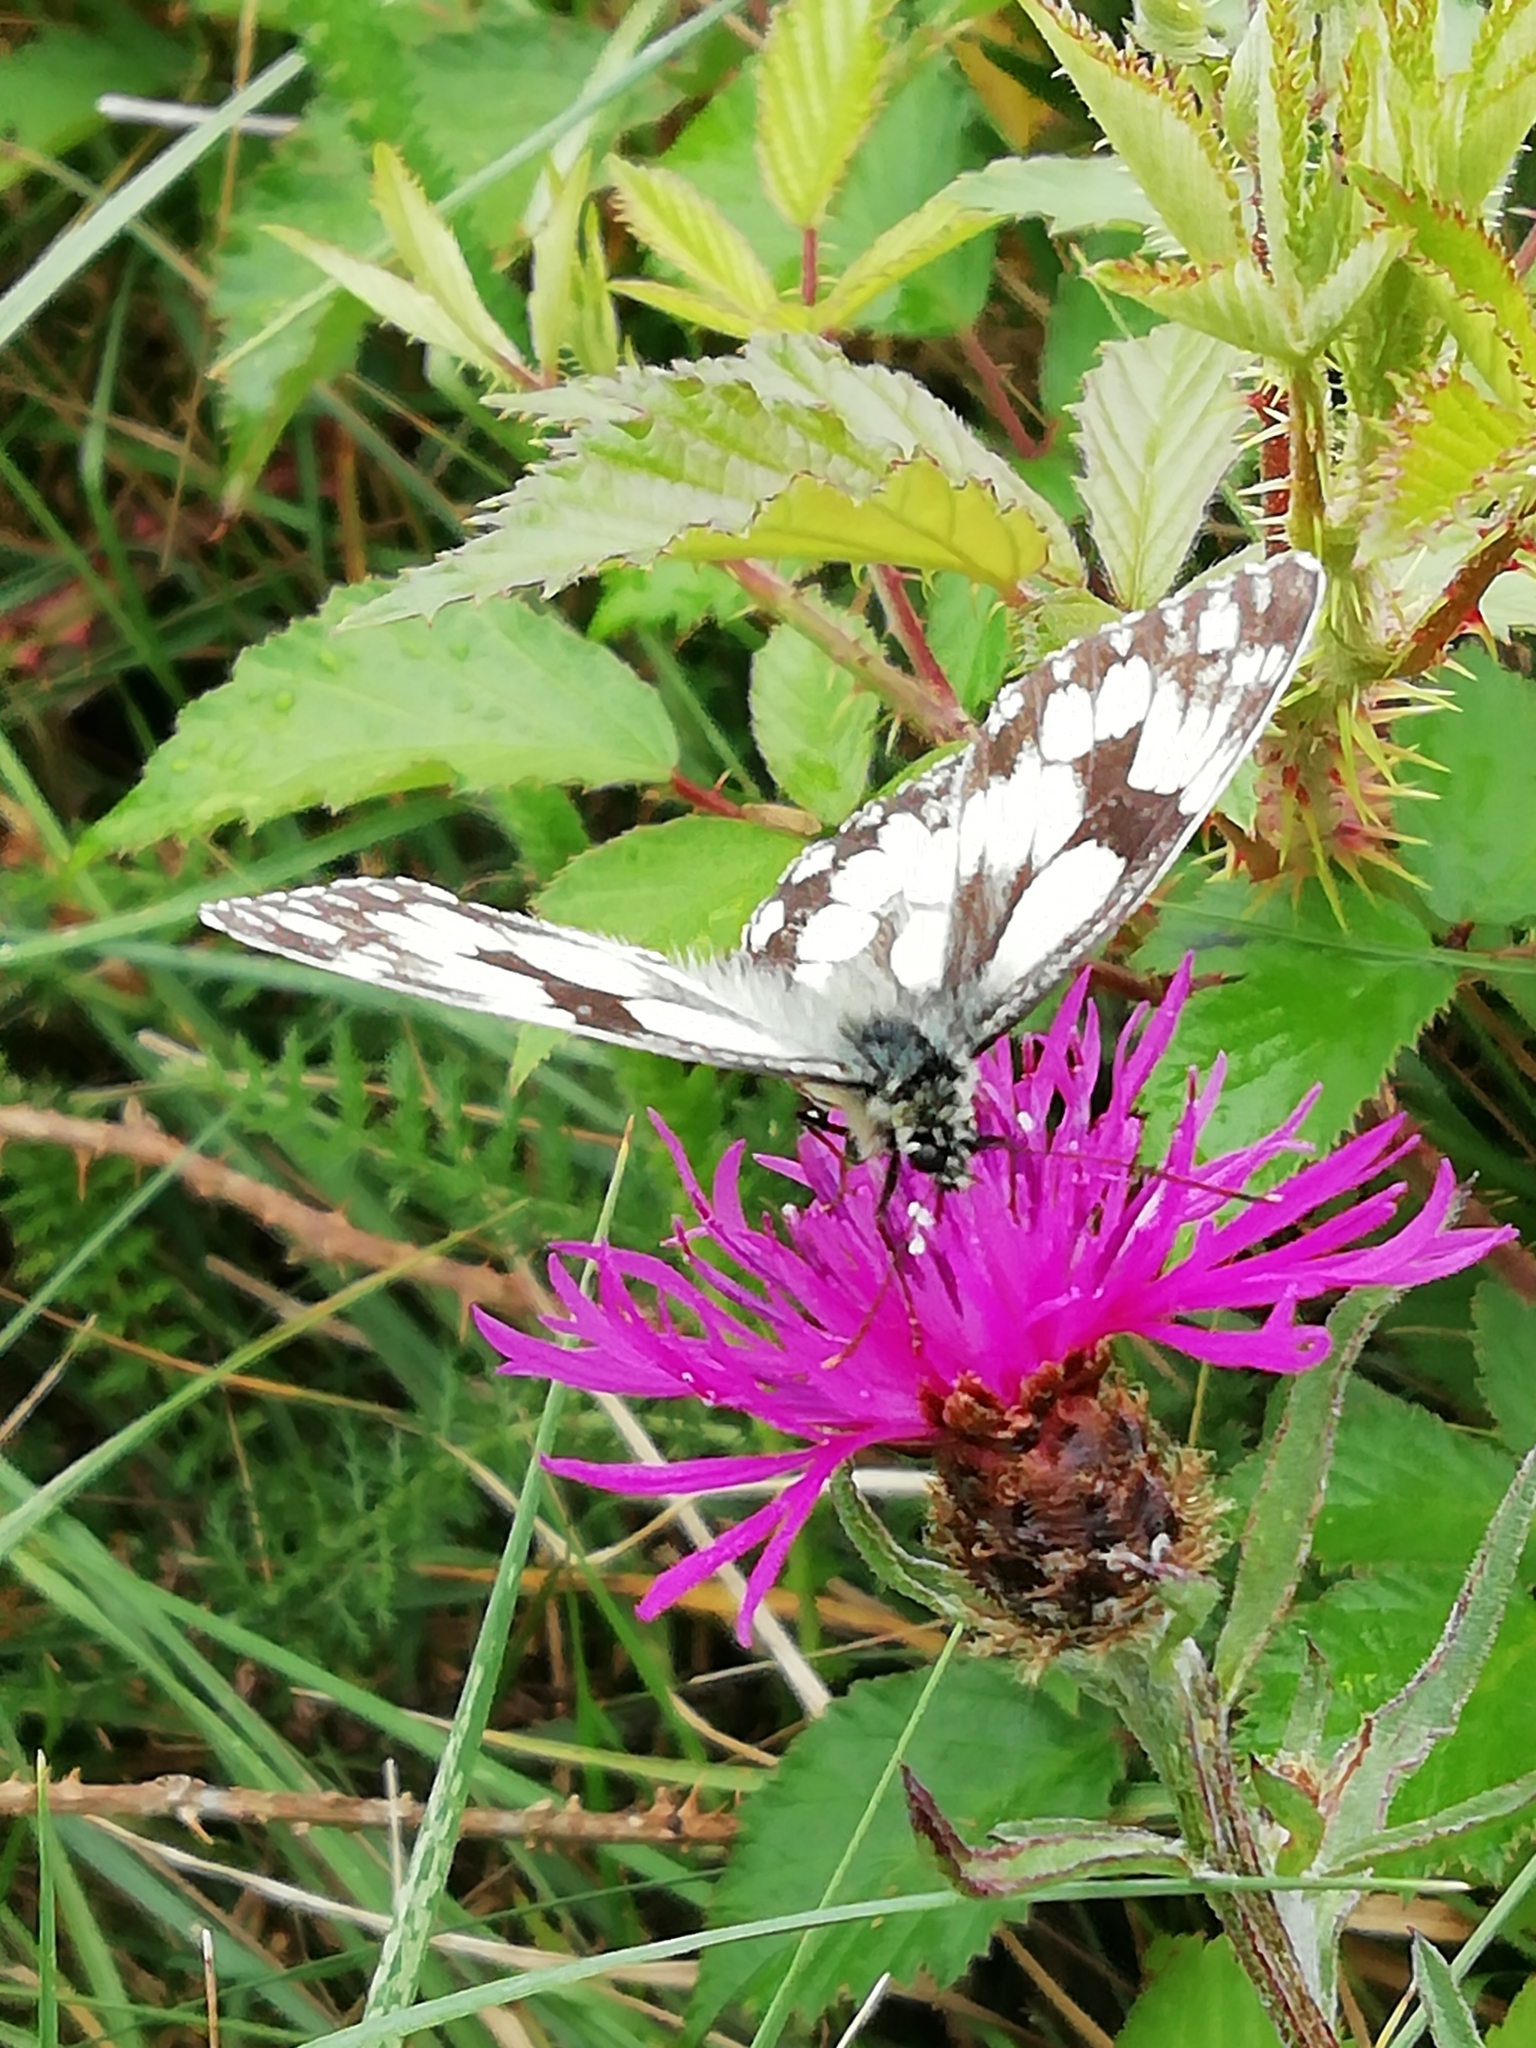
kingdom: Animalia
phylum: Arthropoda
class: Insecta
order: Lepidoptera
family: Nymphalidae
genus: Melanargia
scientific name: Melanargia galathea
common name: Marbled white
